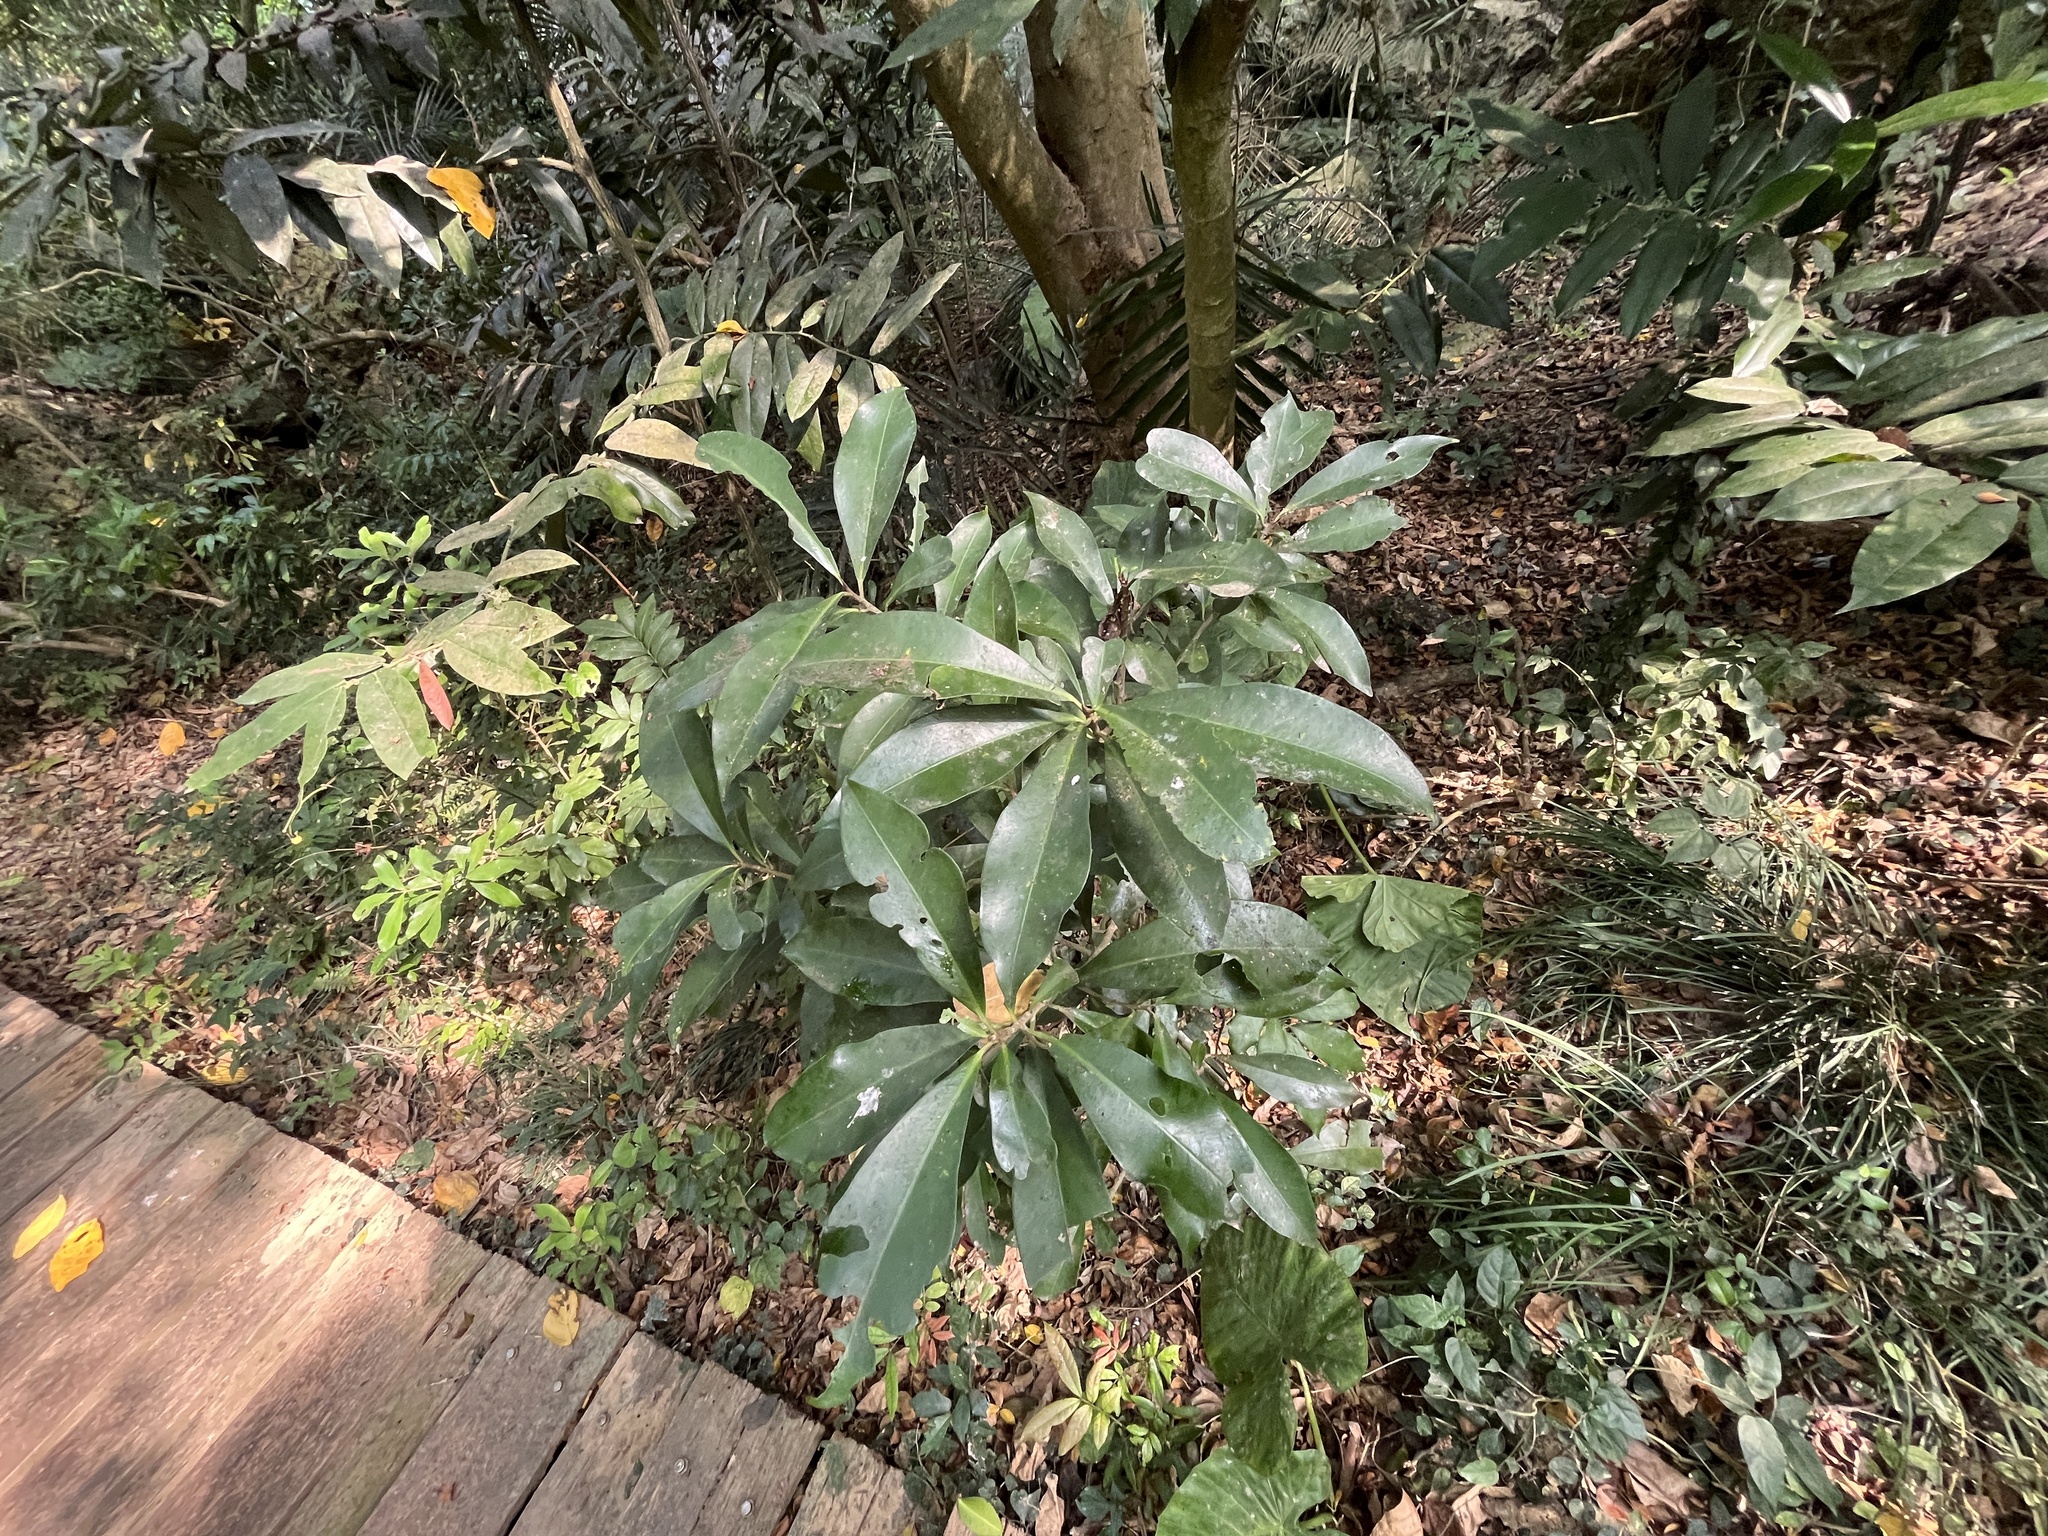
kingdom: Plantae
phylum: Tracheophyta
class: Magnoliopsida
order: Ericales
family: Primulaceae
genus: Ardisia
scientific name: Ardisia sieboldii
